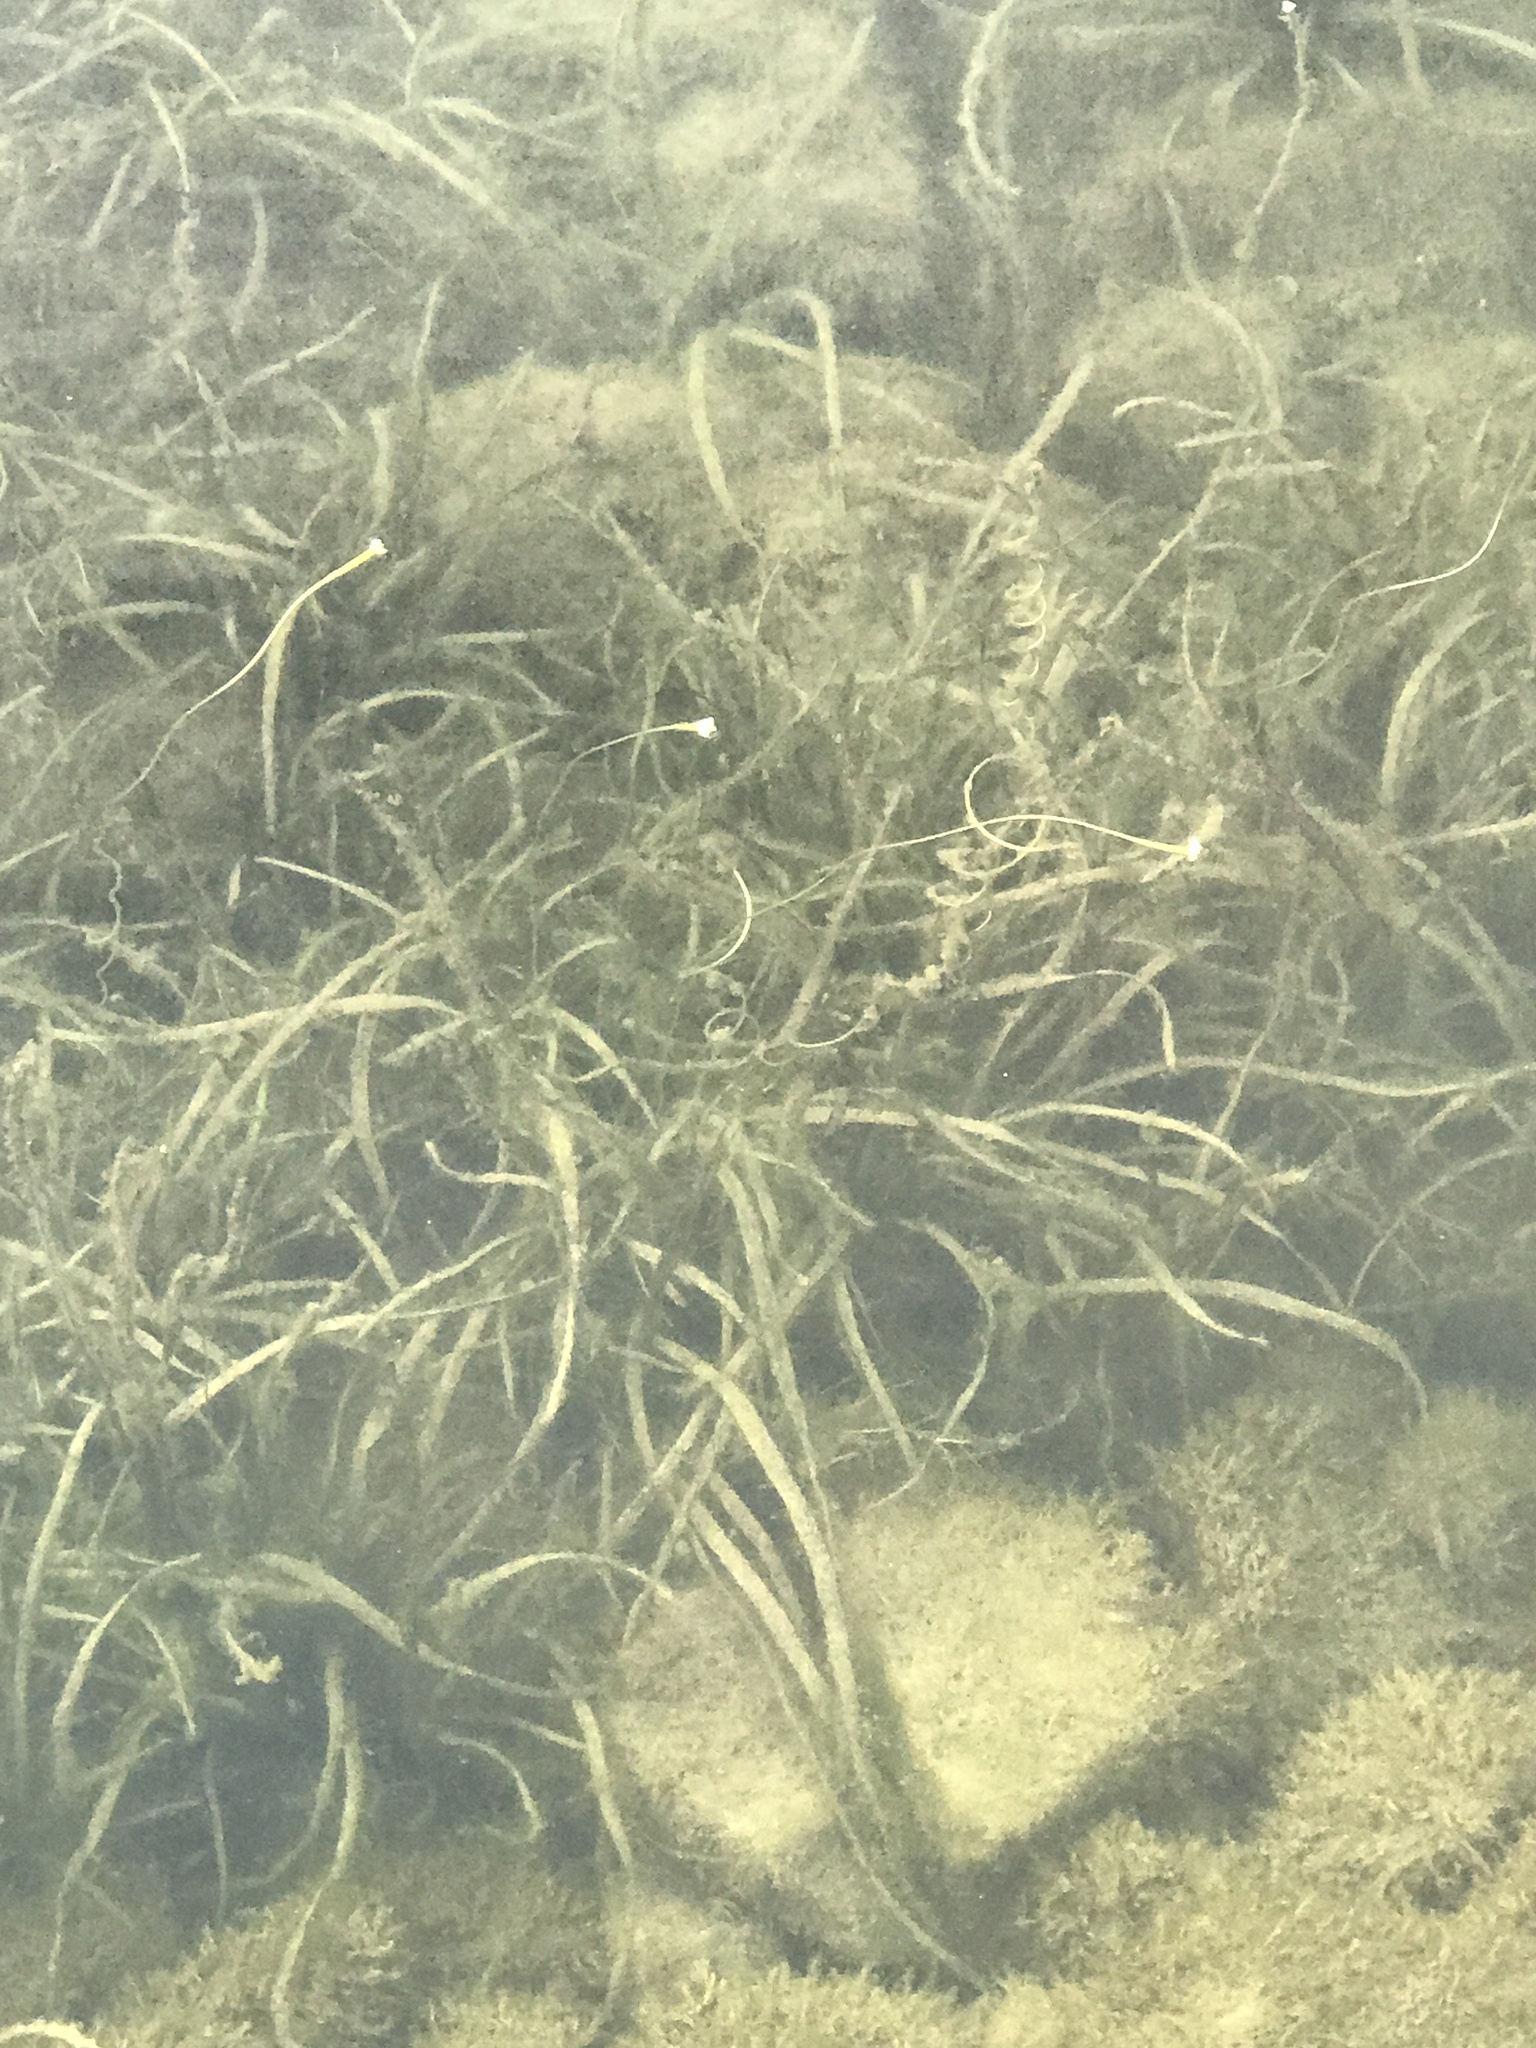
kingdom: Plantae
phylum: Tracheophyta
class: Liliopsida
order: Alismatales
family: Hydrocharitaceae
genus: Vallisneria
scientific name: Vallisneria americana
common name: American eelgrass
